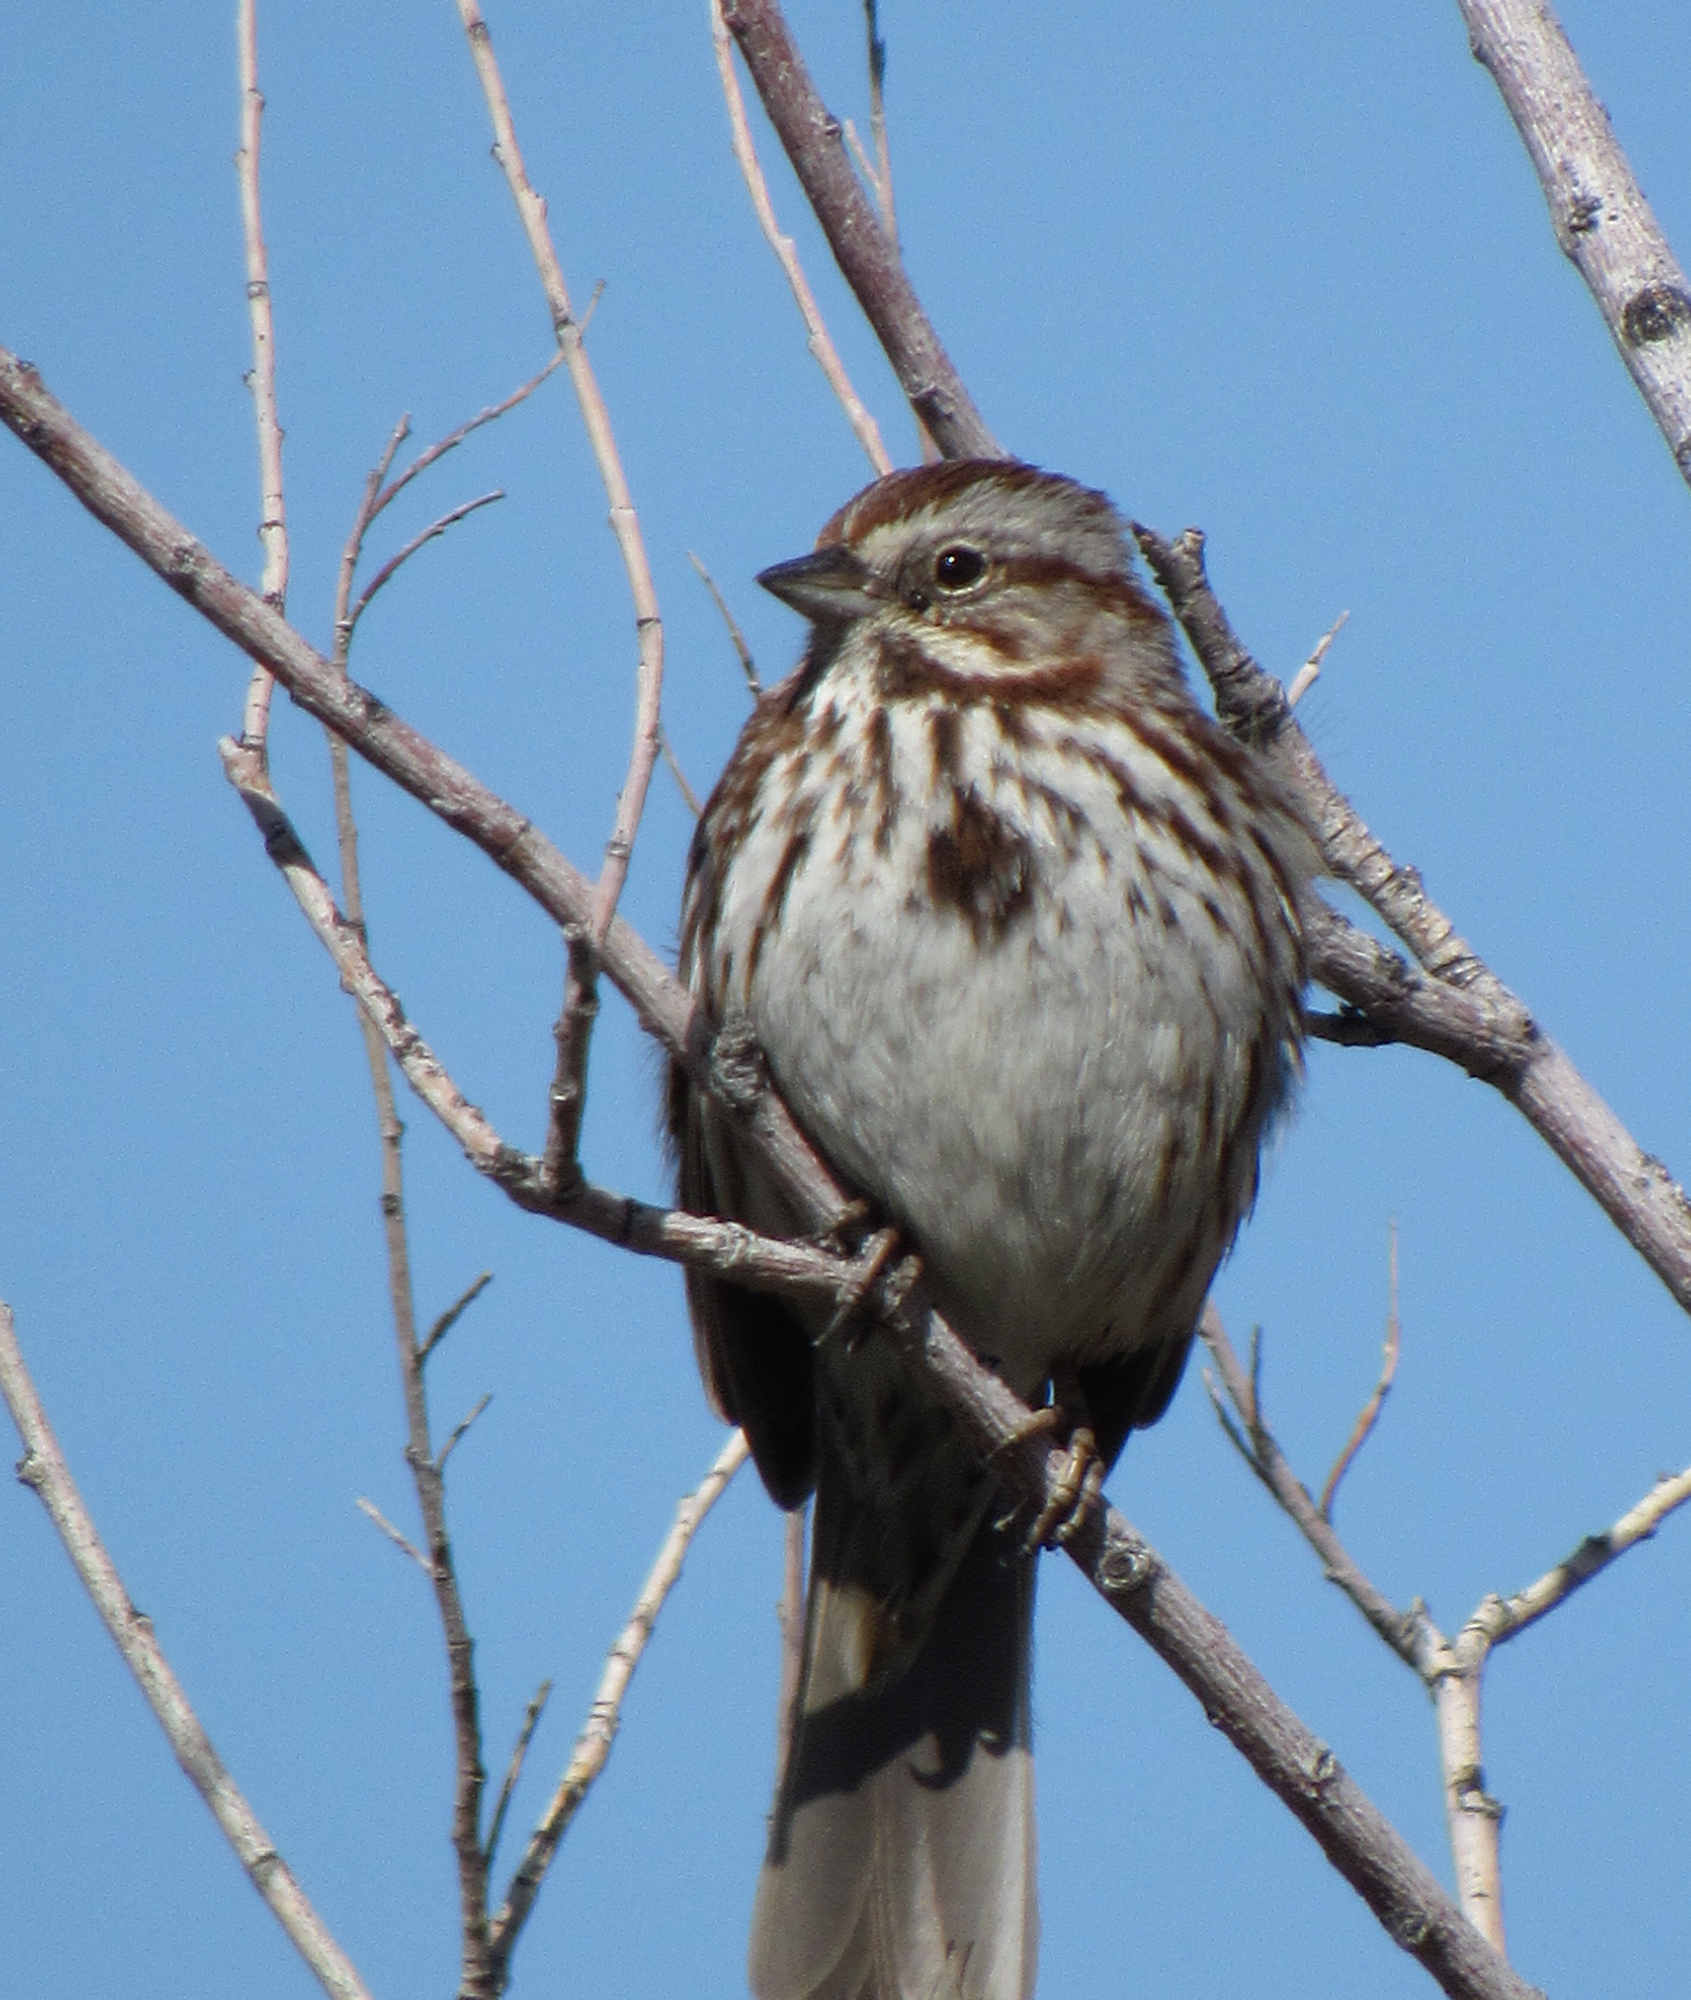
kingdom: Animalia
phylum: Chordata
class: Aves
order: Passeriformes
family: Passerellidae
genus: Melospiza
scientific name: Melospiza melodia
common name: Song sparrow
